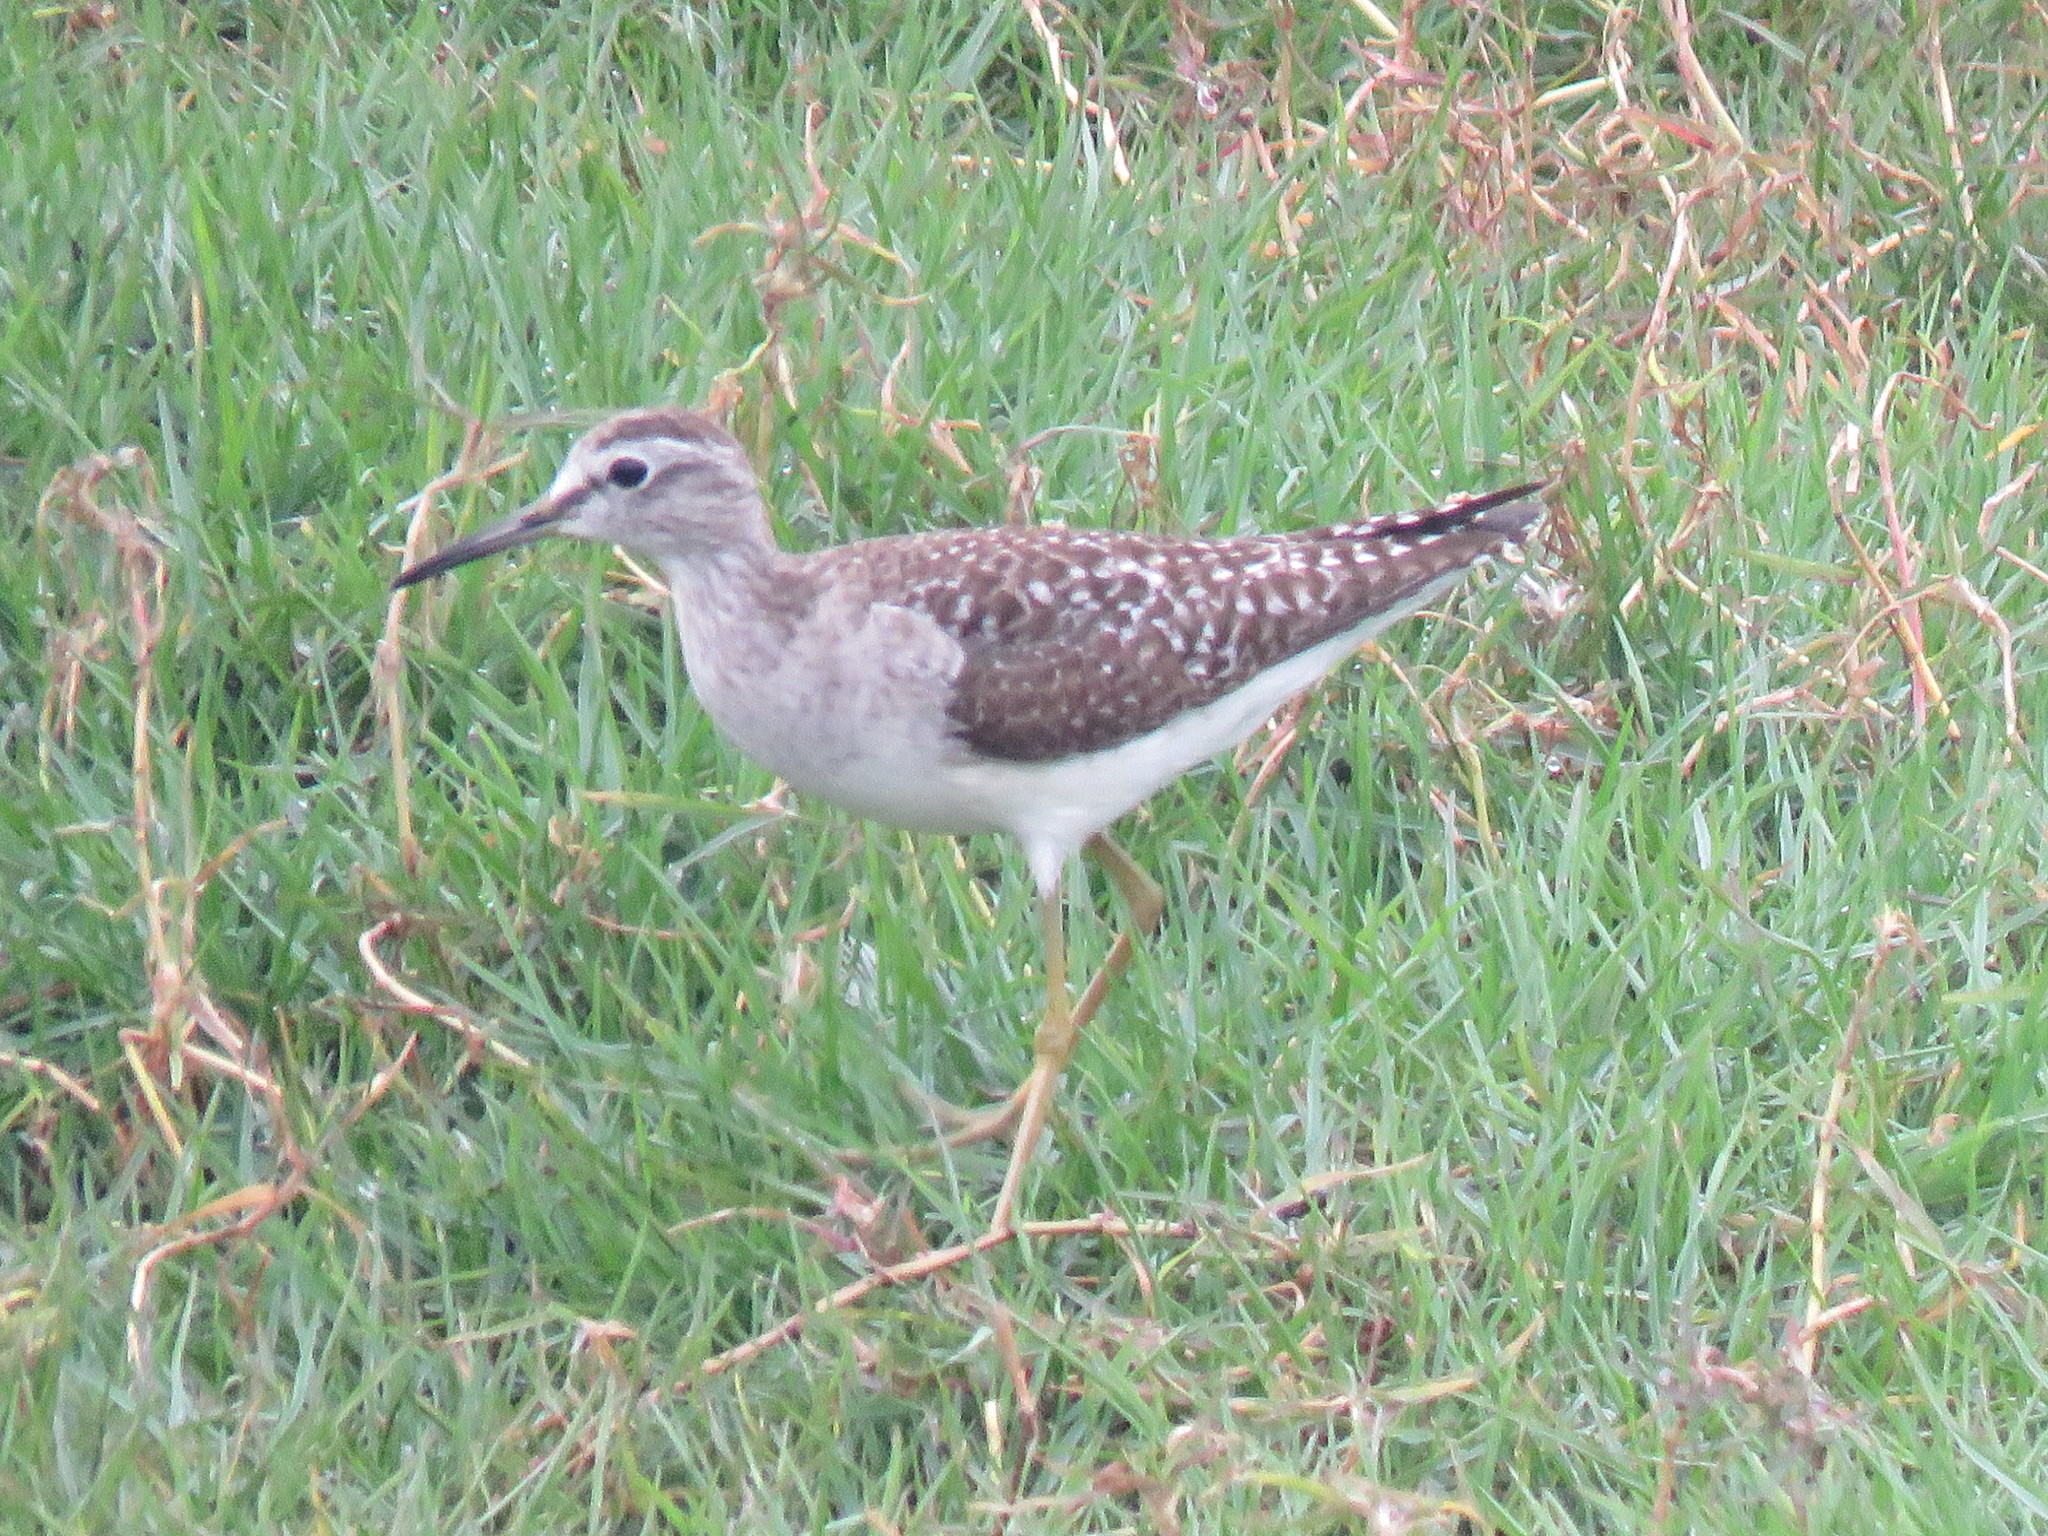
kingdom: Animalia
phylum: Chordata
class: Aves
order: Charadriiformes
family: Scolopacidae
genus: Tringa
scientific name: Tringa glareola
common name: Wood sandpiper
